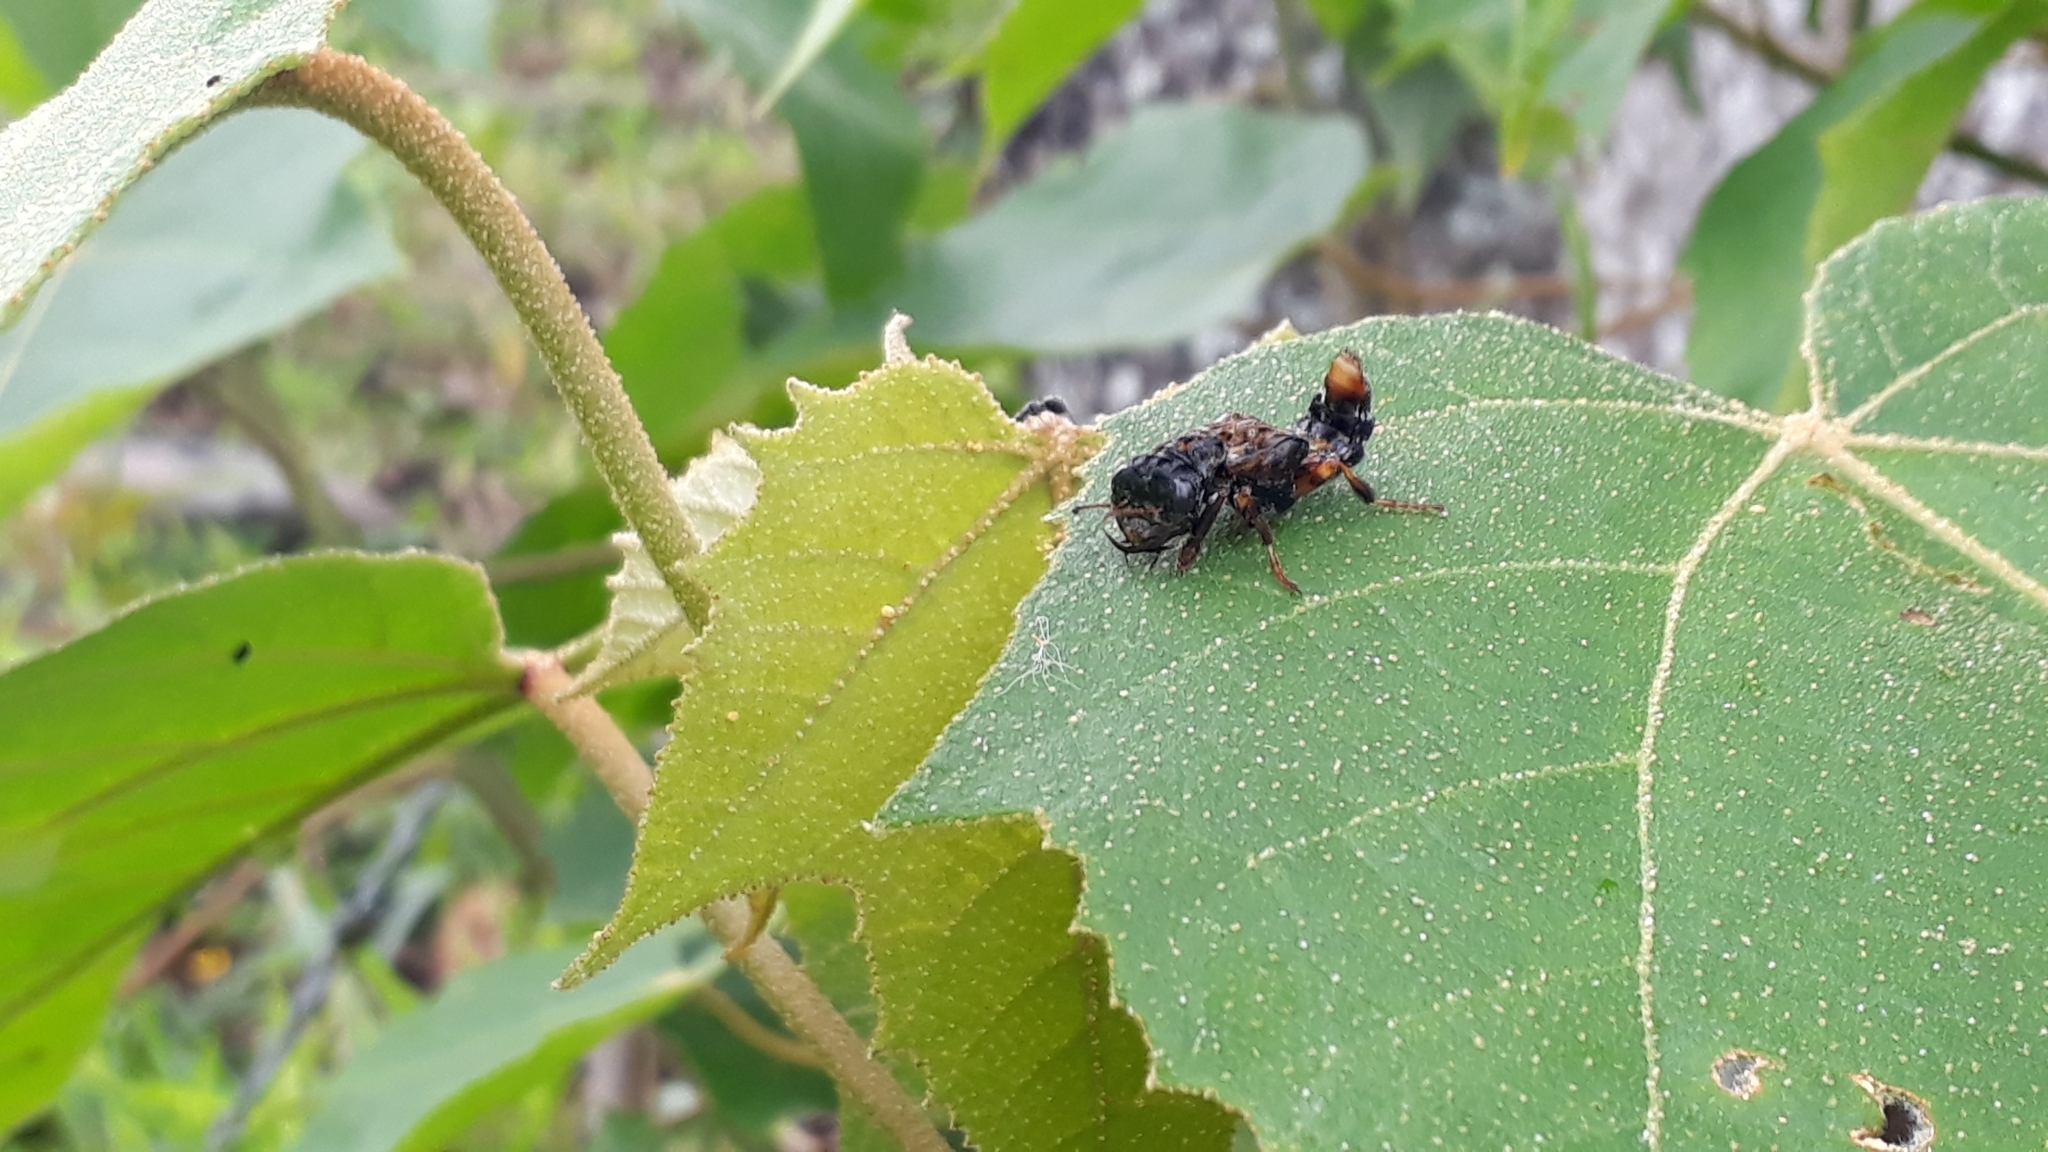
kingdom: Animalia
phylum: Arthropoda
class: Insecta
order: Coleoptera
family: Staphylinidae
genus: Leistotrophus
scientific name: Leistotrophus versicolor
